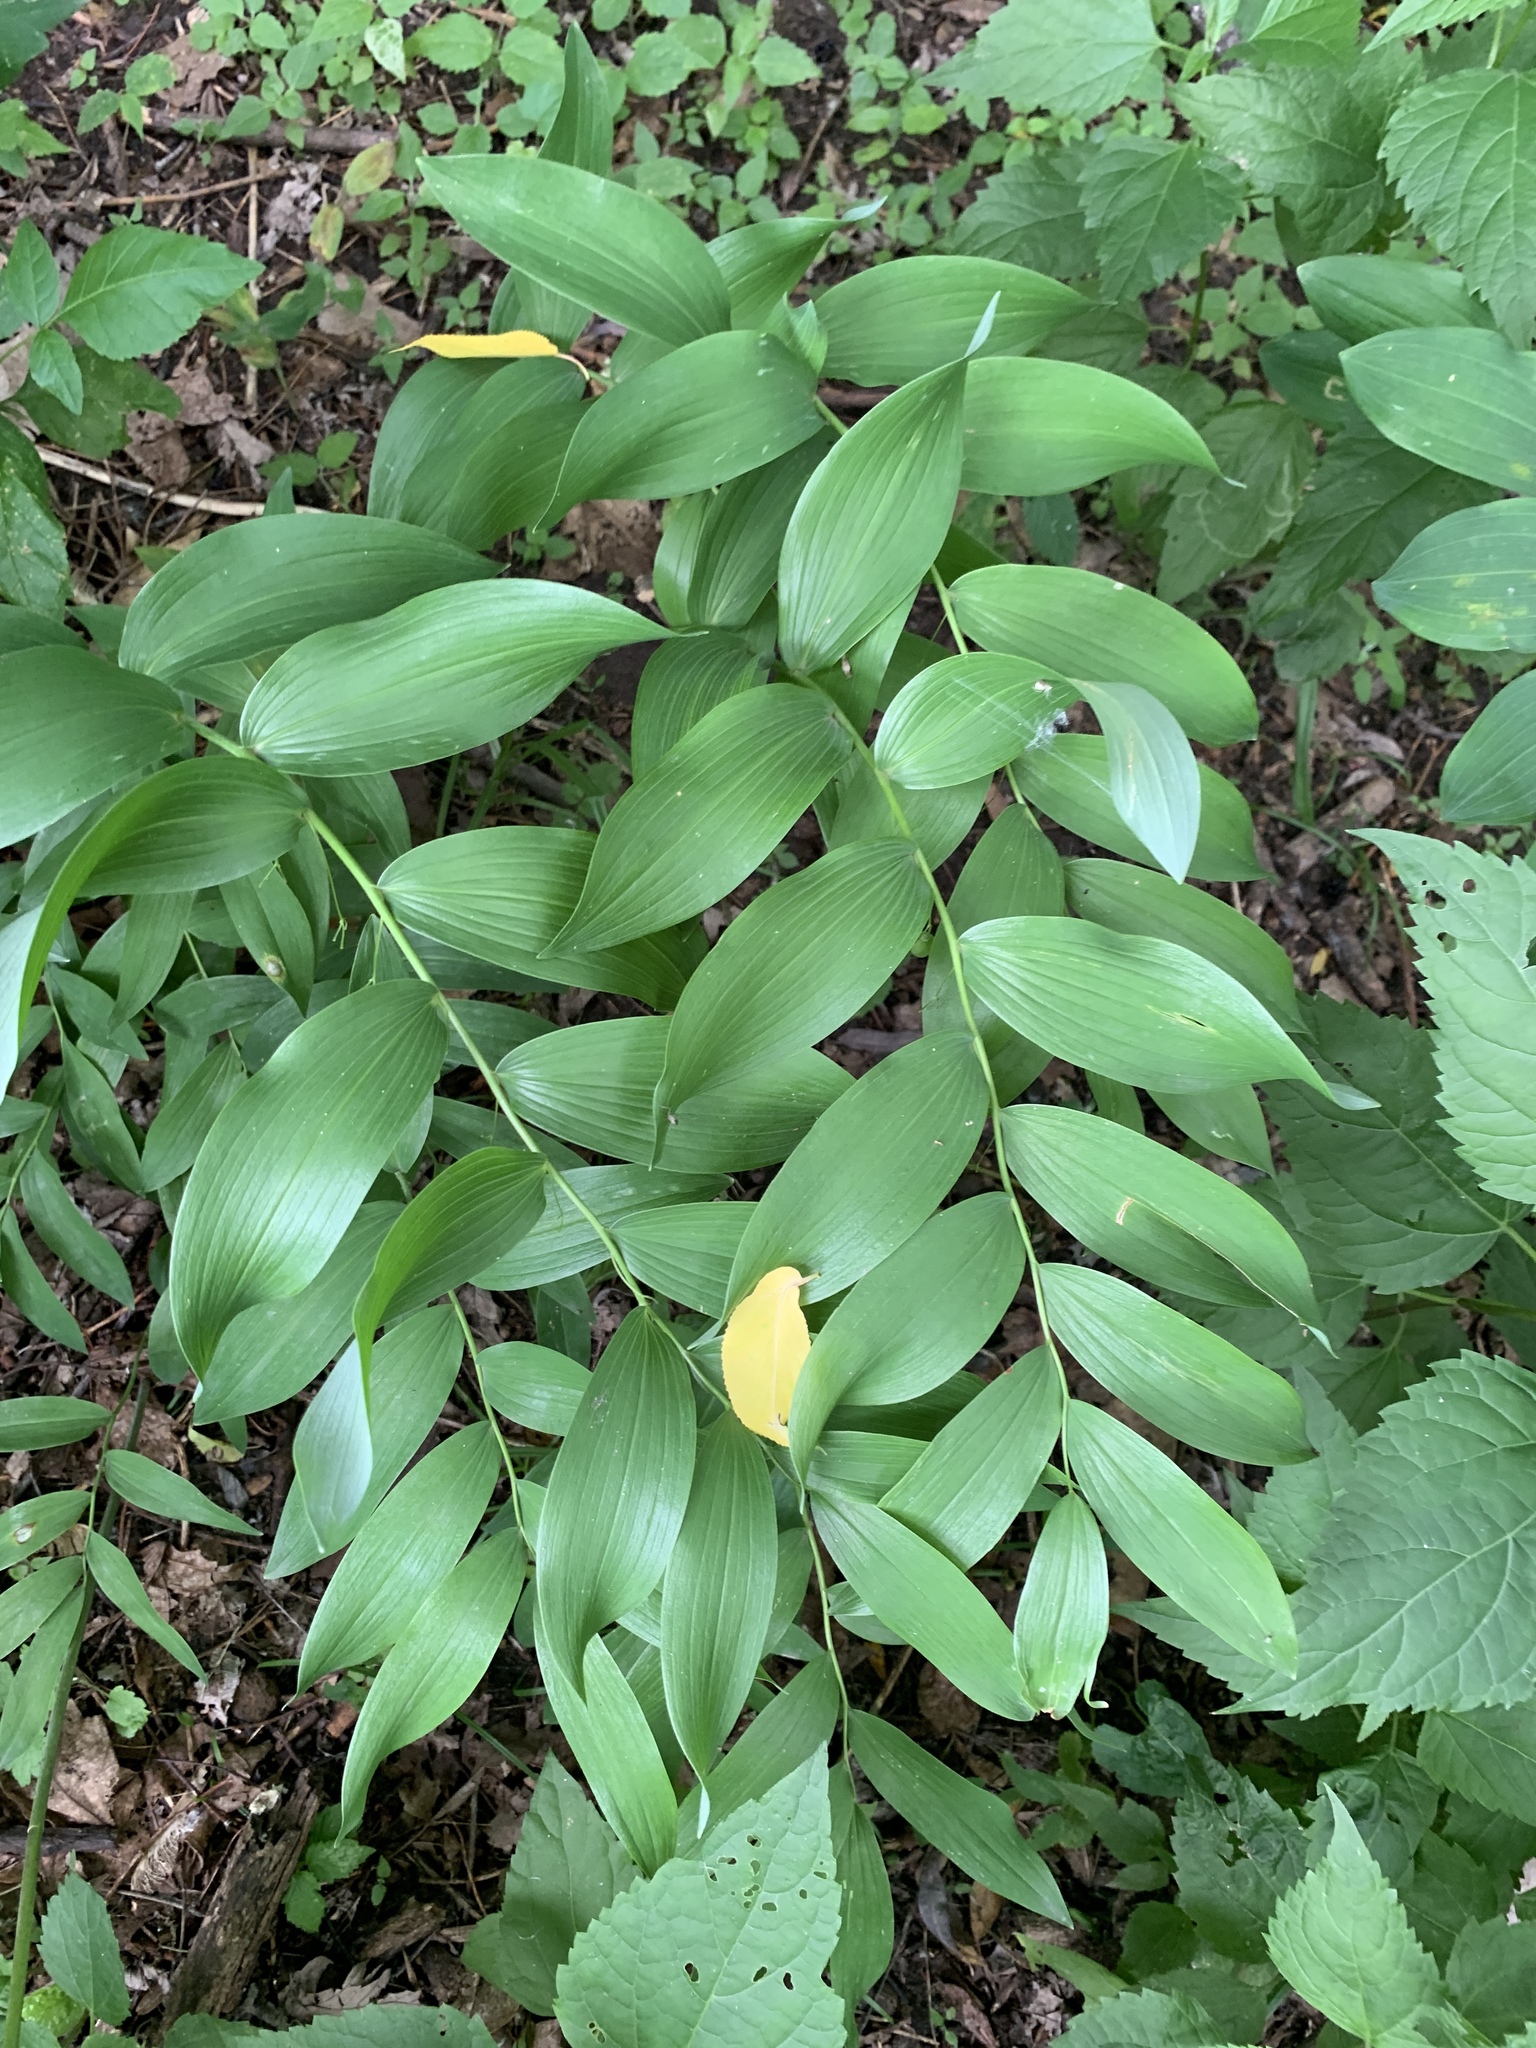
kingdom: Plantae
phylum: Tracheophyta
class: Liliopsida
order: Asparagales
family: Asparagaceae
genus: Polygonatum
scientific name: Polygonatum biflorum
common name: American solomon's-seal
